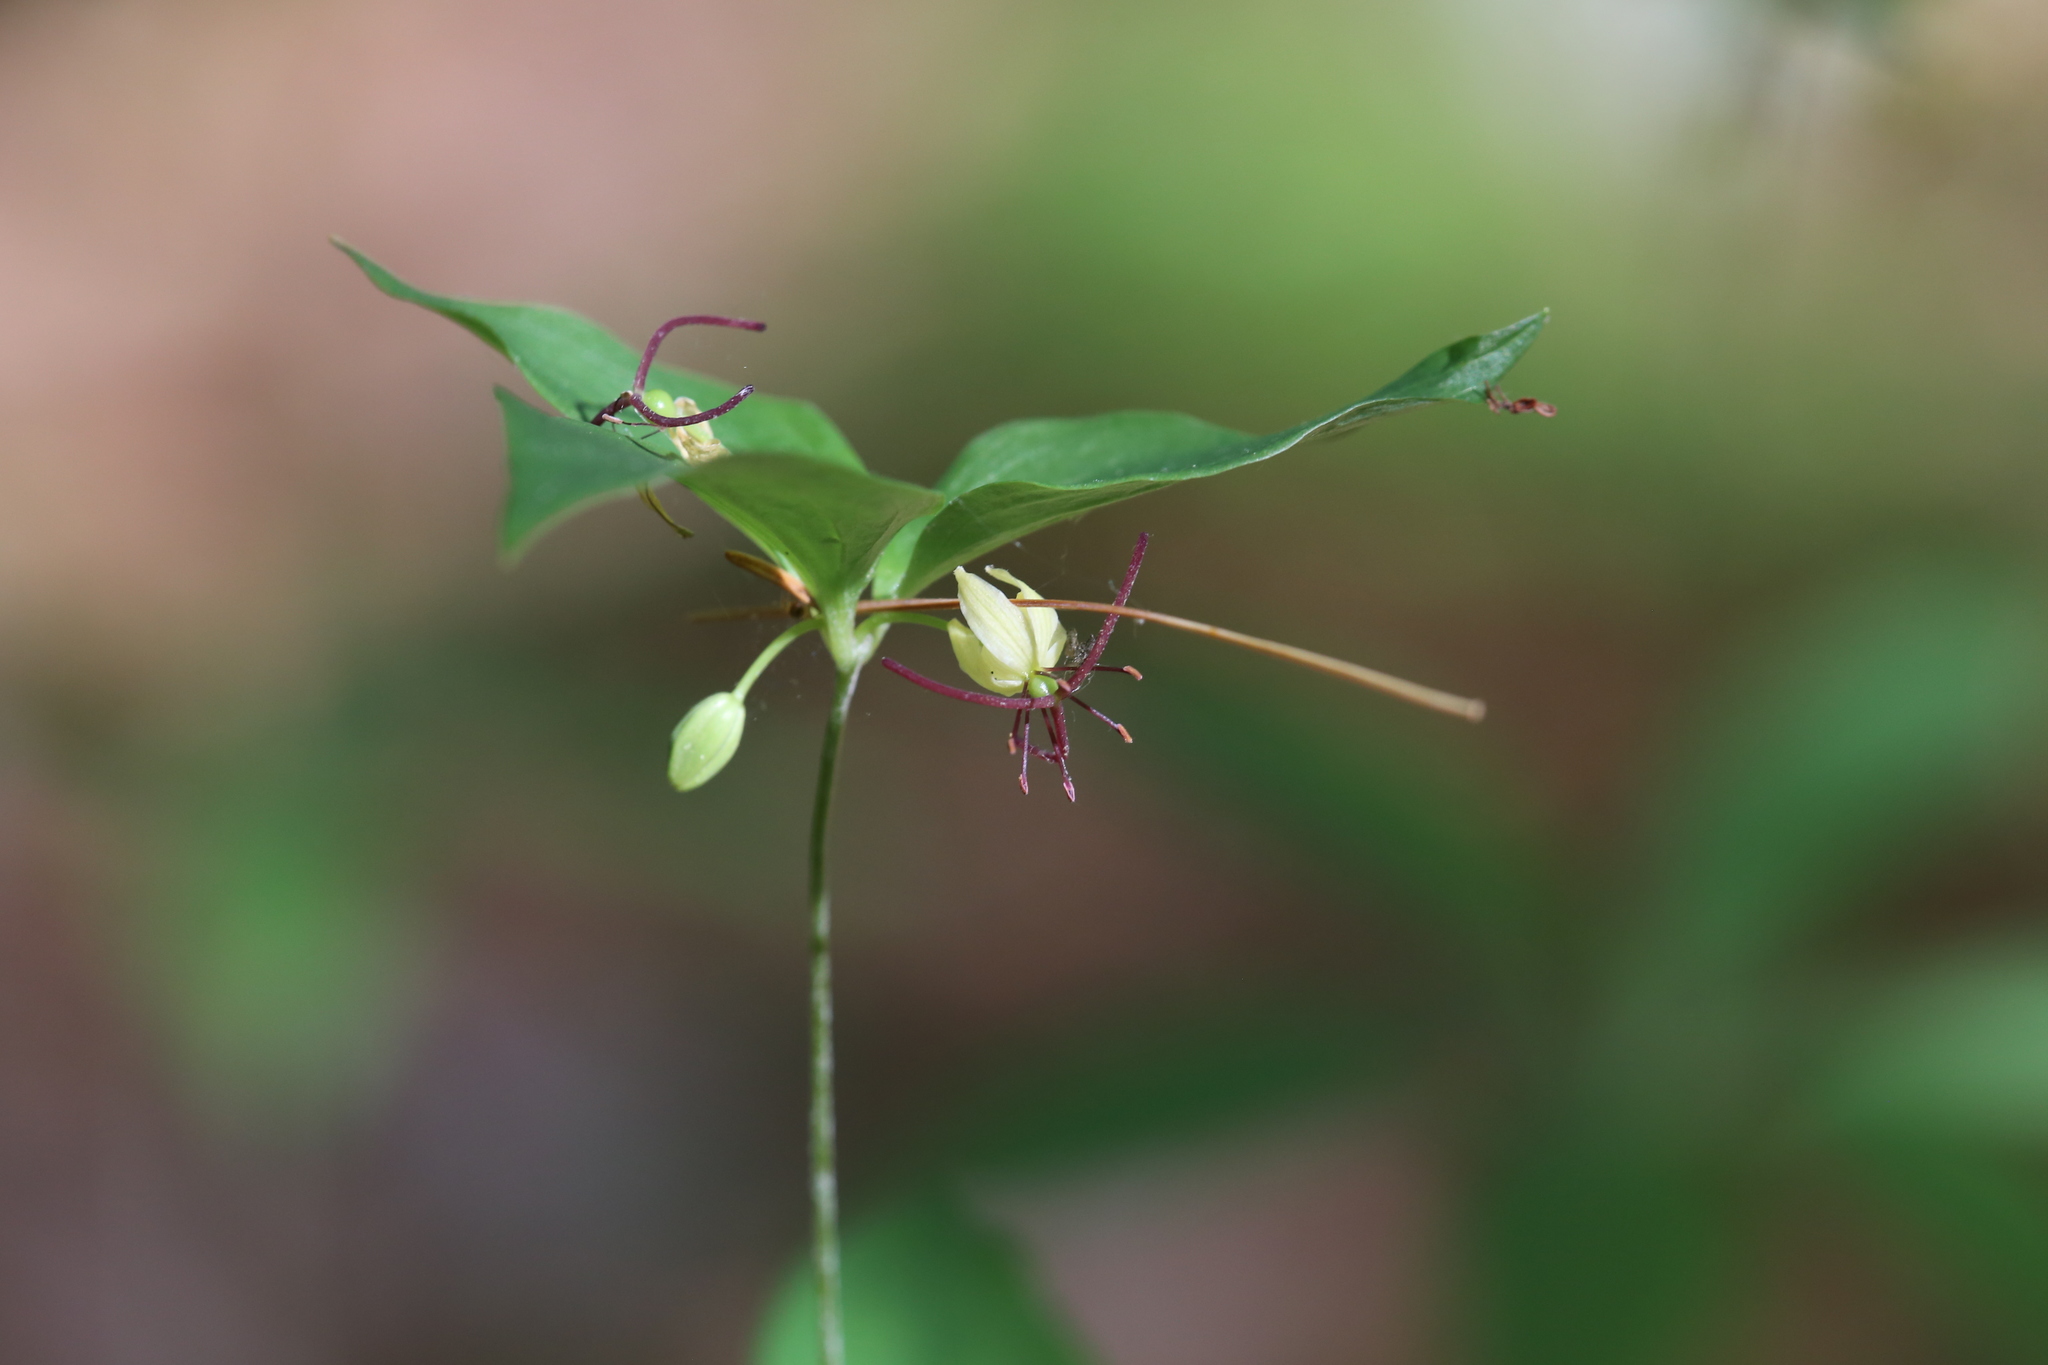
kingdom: Plantae
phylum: Tracheophyta
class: Liliopsida
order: Liliales
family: Liliaceae
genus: Medeola
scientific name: Medeola virginiana
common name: Indian cucumber-root
